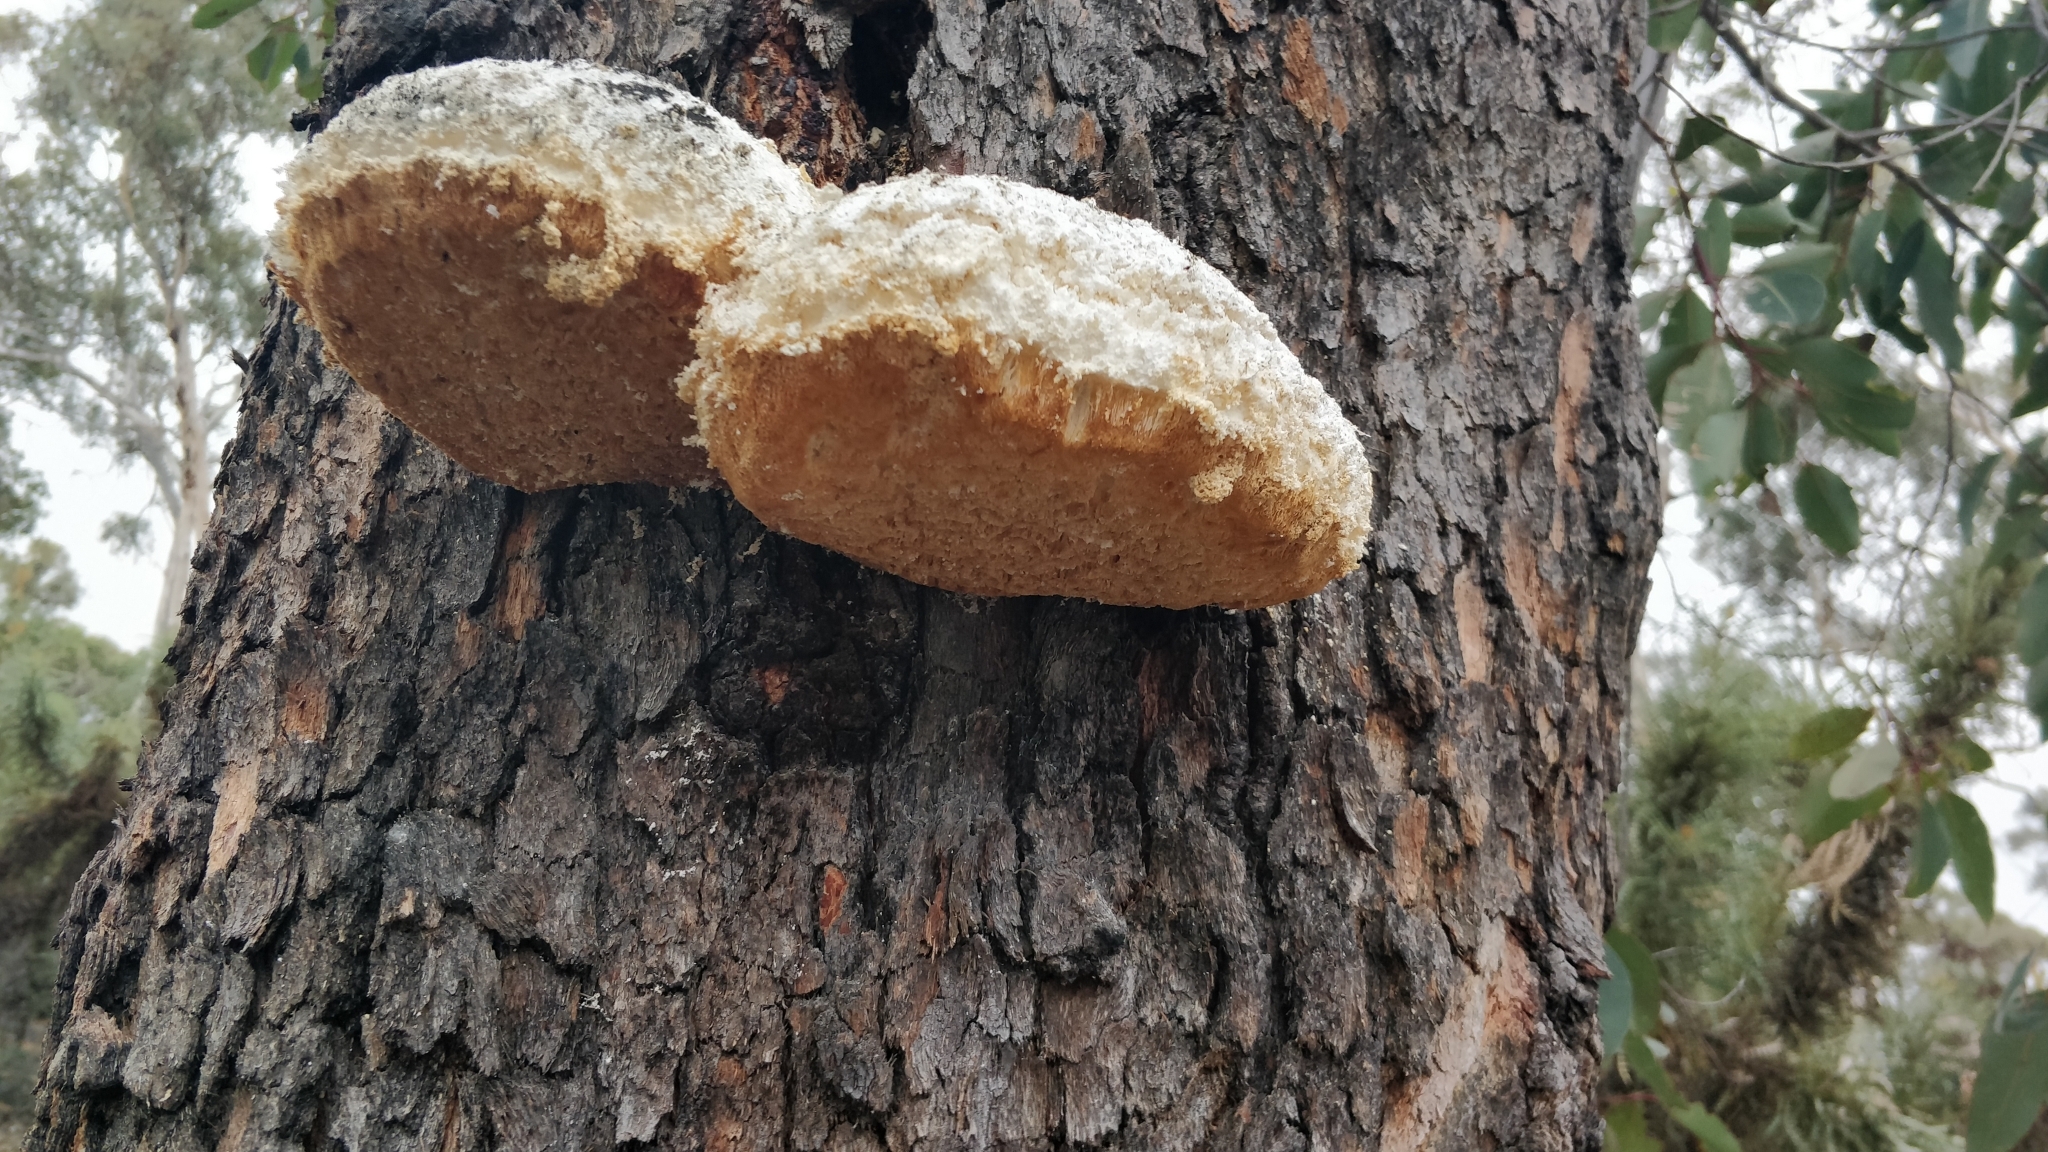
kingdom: Fungi
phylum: Basidiomycota
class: Agaricomycetes
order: Polyporales
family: Laetiporaceae
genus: Laetiporus
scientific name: Laetiporus portentosus
